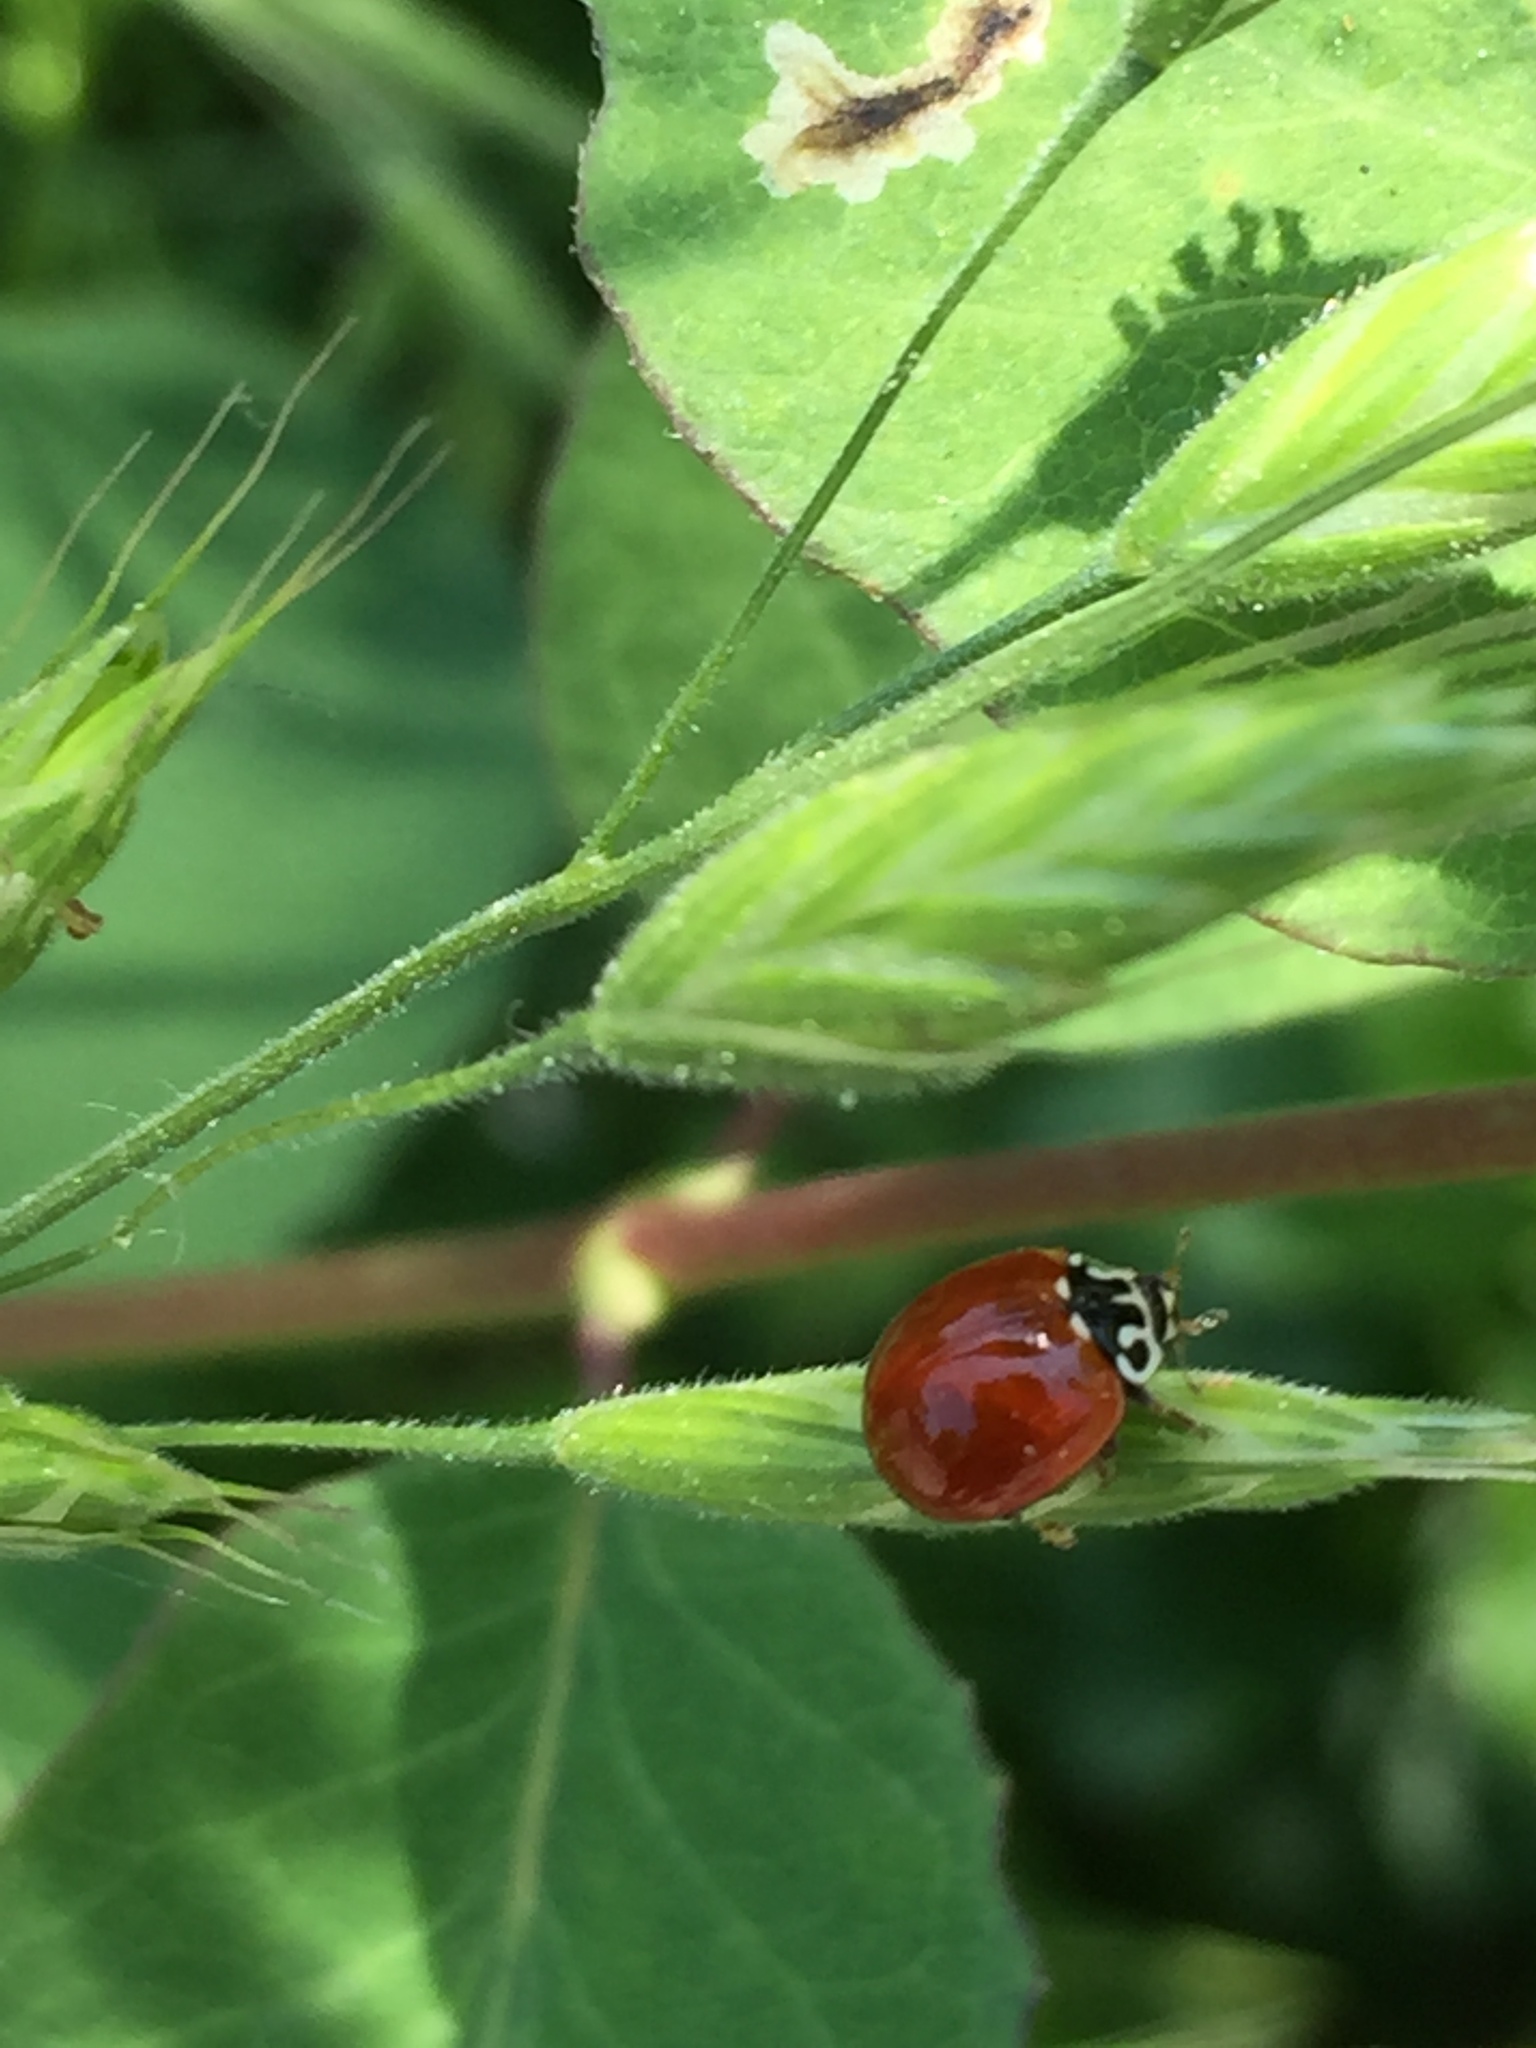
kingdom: Animalia
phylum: Arthropoda
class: Insecta
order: Coleoptera
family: Coccinellidae
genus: Cycloneda
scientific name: Cycloneda polita
